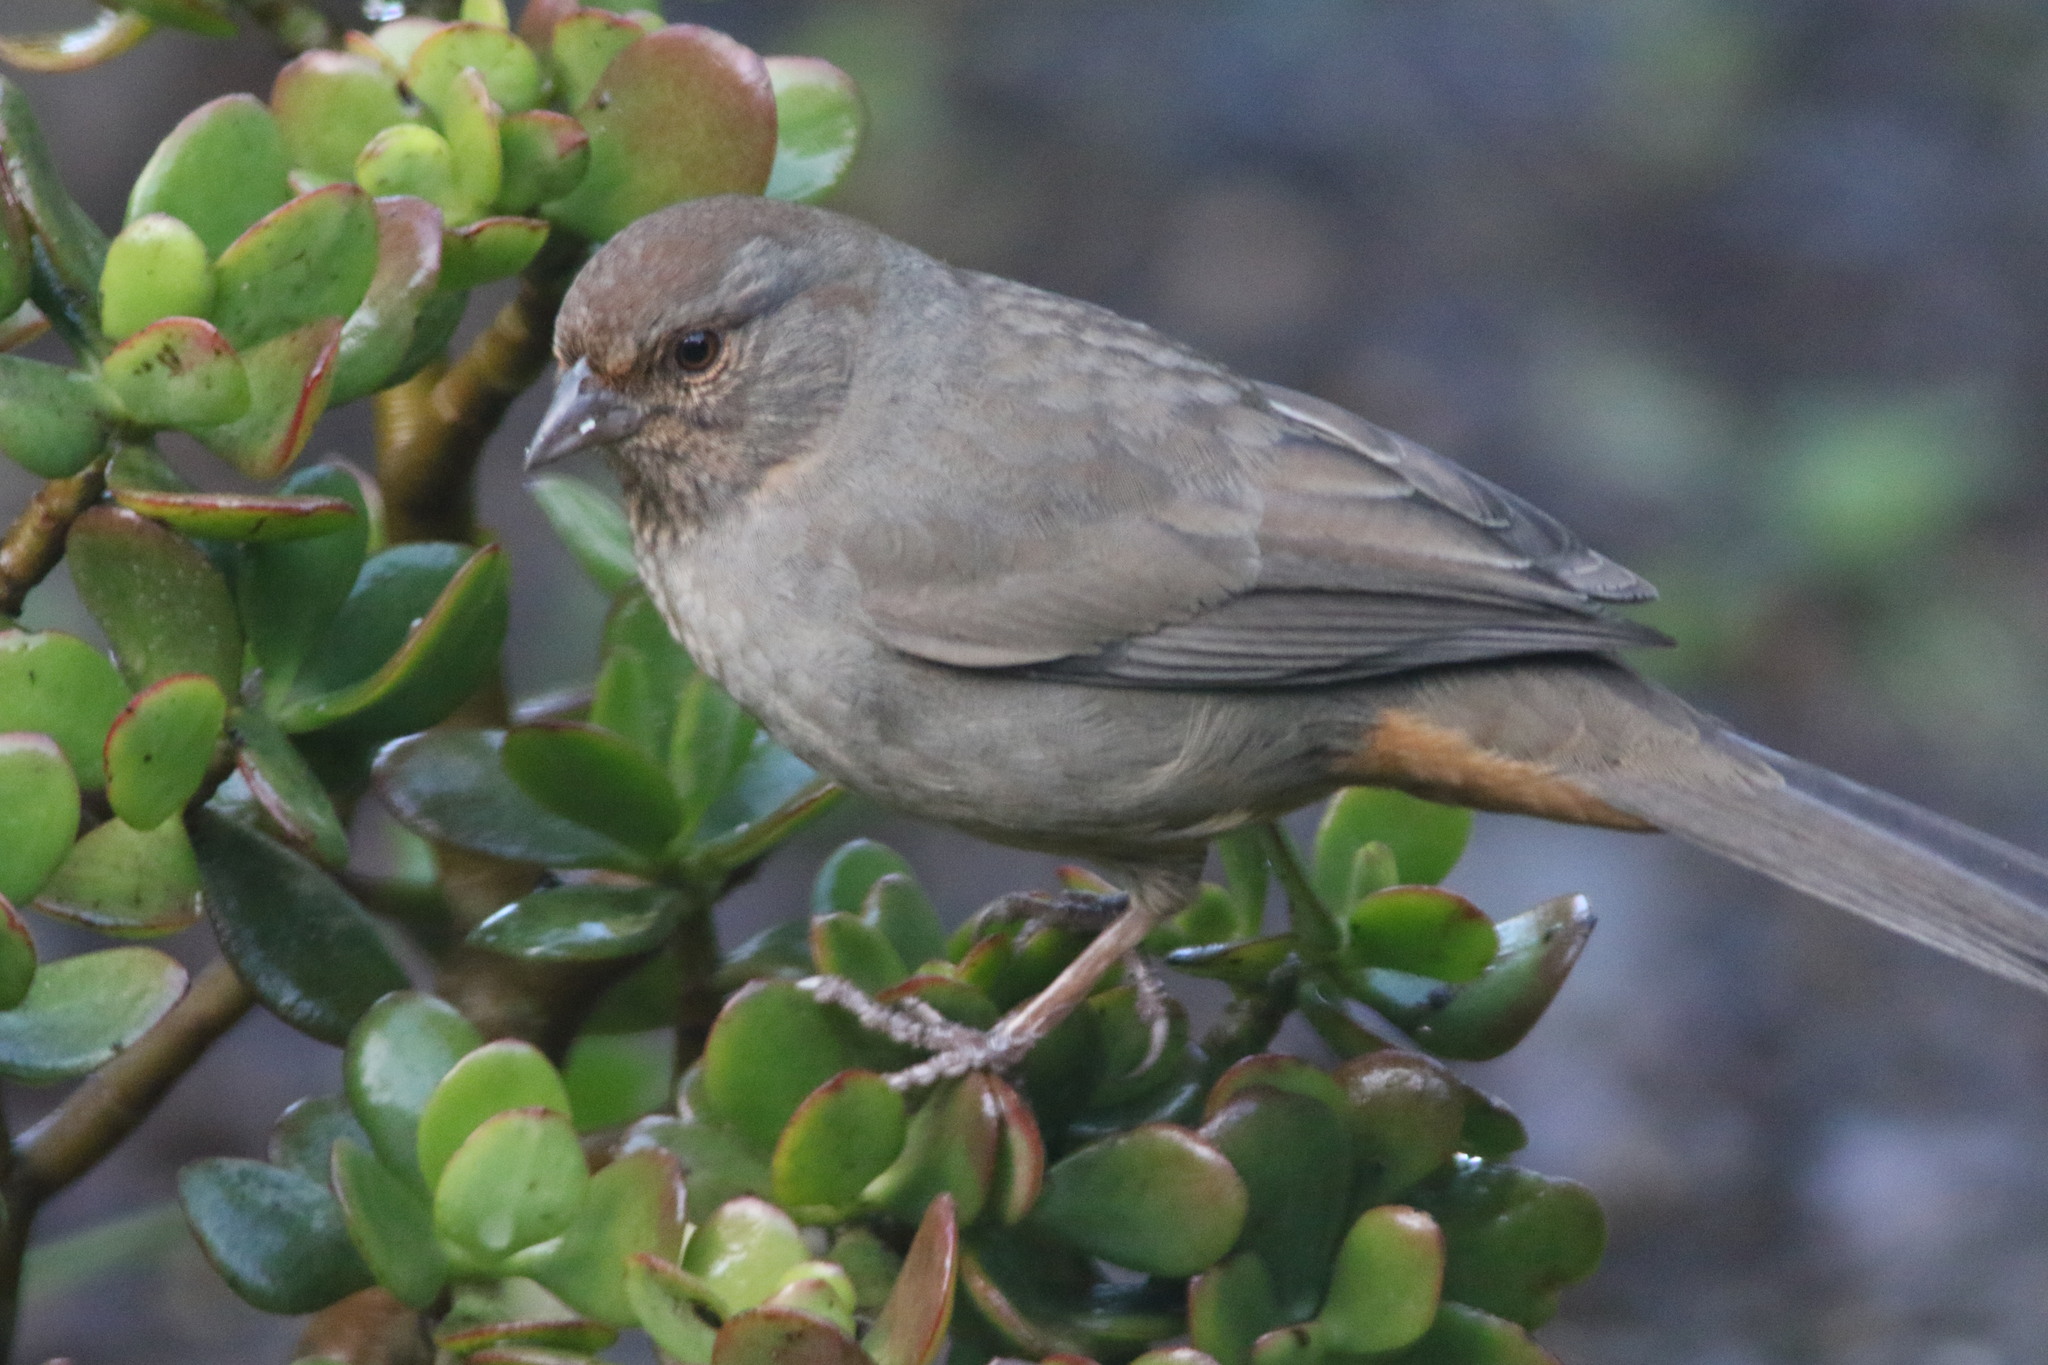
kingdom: Animalia
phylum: Chordata
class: Aves
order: Passeriformes
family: Passerellidae
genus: Melozone
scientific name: Melozone crissalis
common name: California towhee
